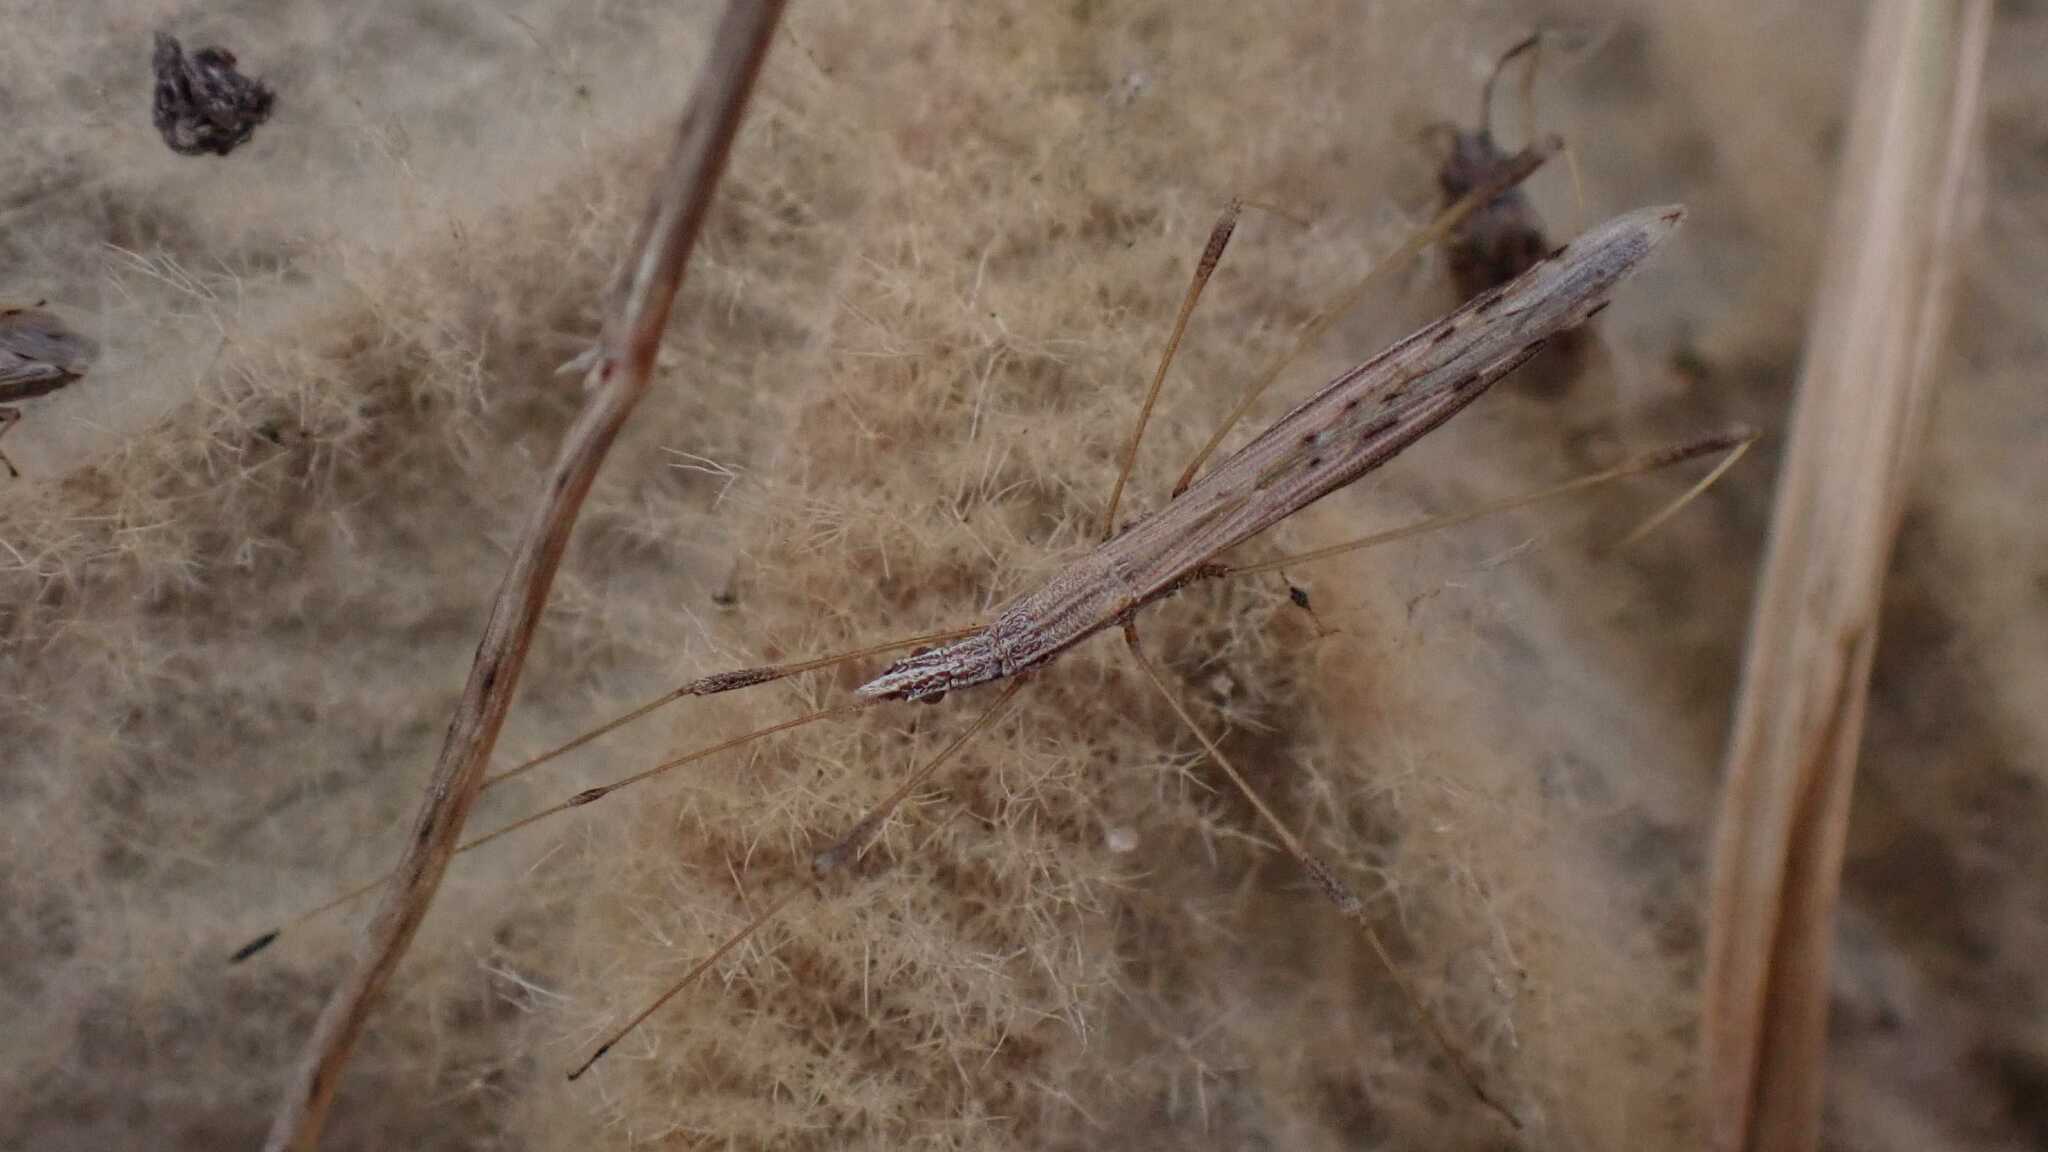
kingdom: Animalia
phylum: Arthropoda
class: Insecta
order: Hemiptera
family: Berytidae
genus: Neides
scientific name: Neides tipularius
